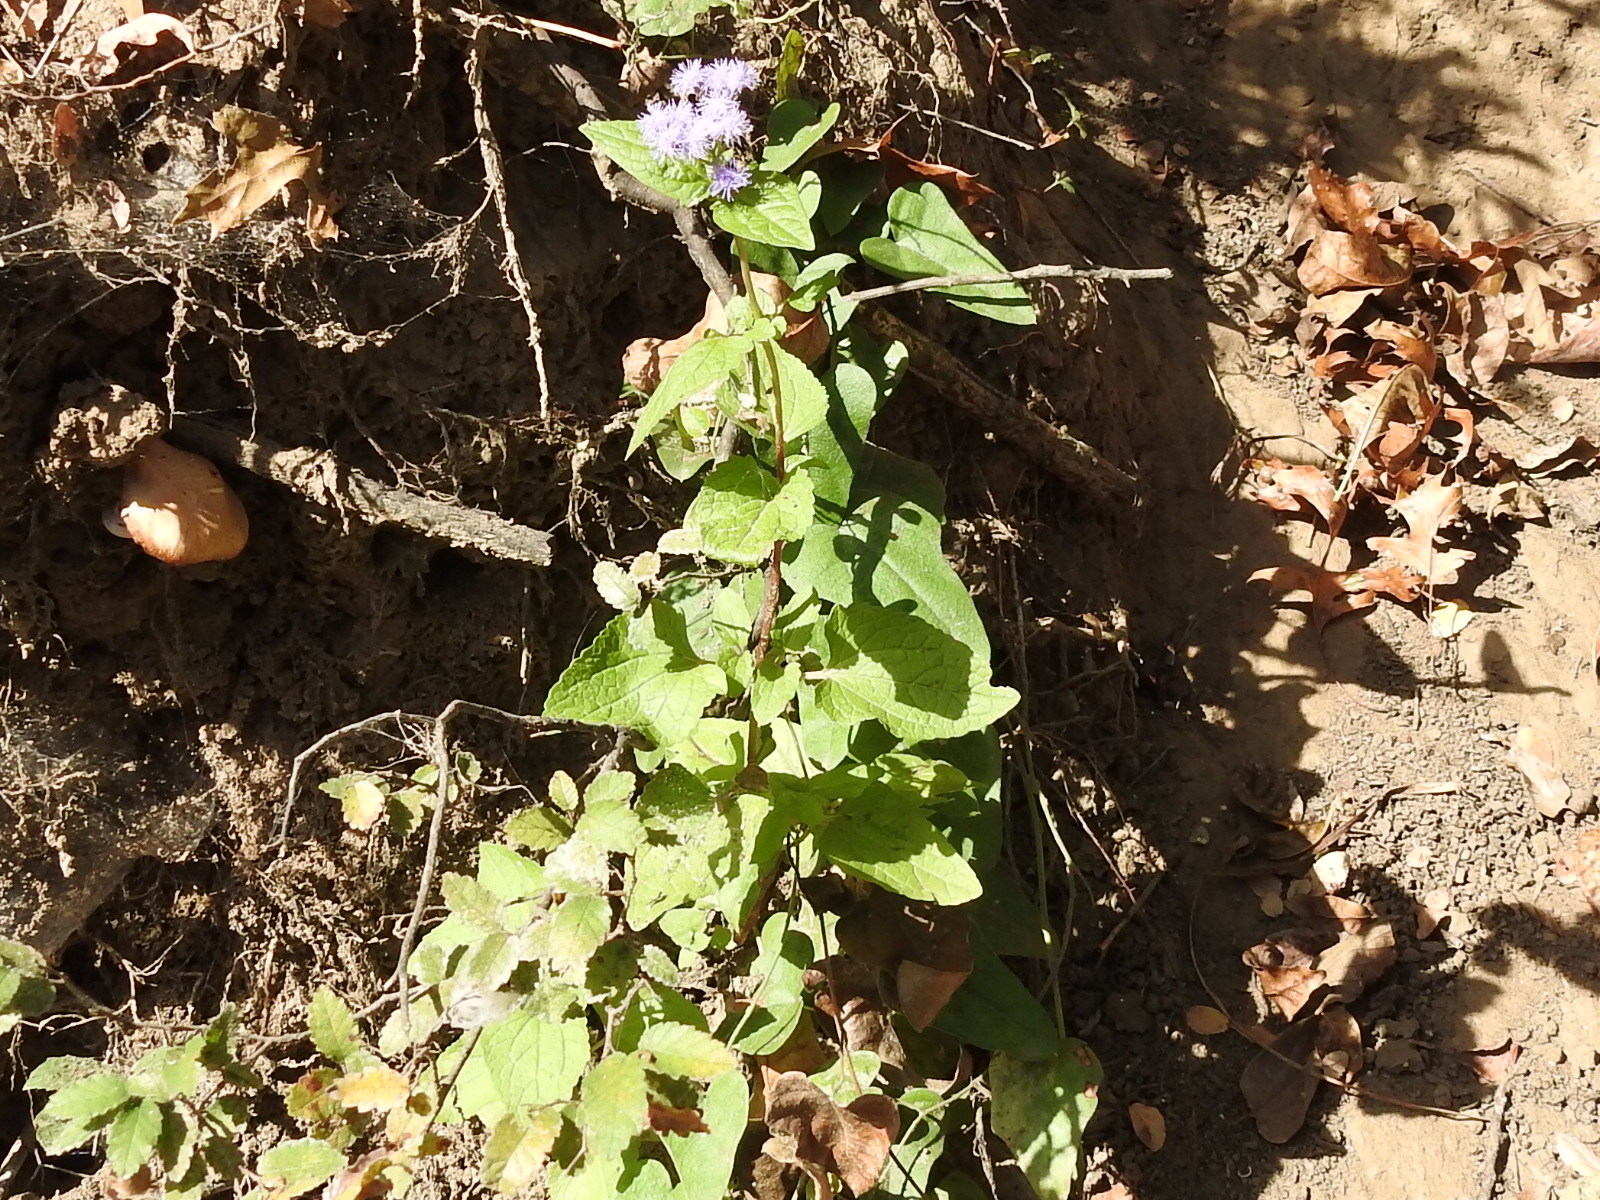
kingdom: Plantae
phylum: Tracheophyta
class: Magnoliopsida
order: Asterales
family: Asteraceae
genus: Conoclinium
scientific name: Conoclinium coelestinum
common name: Blue mistflower
